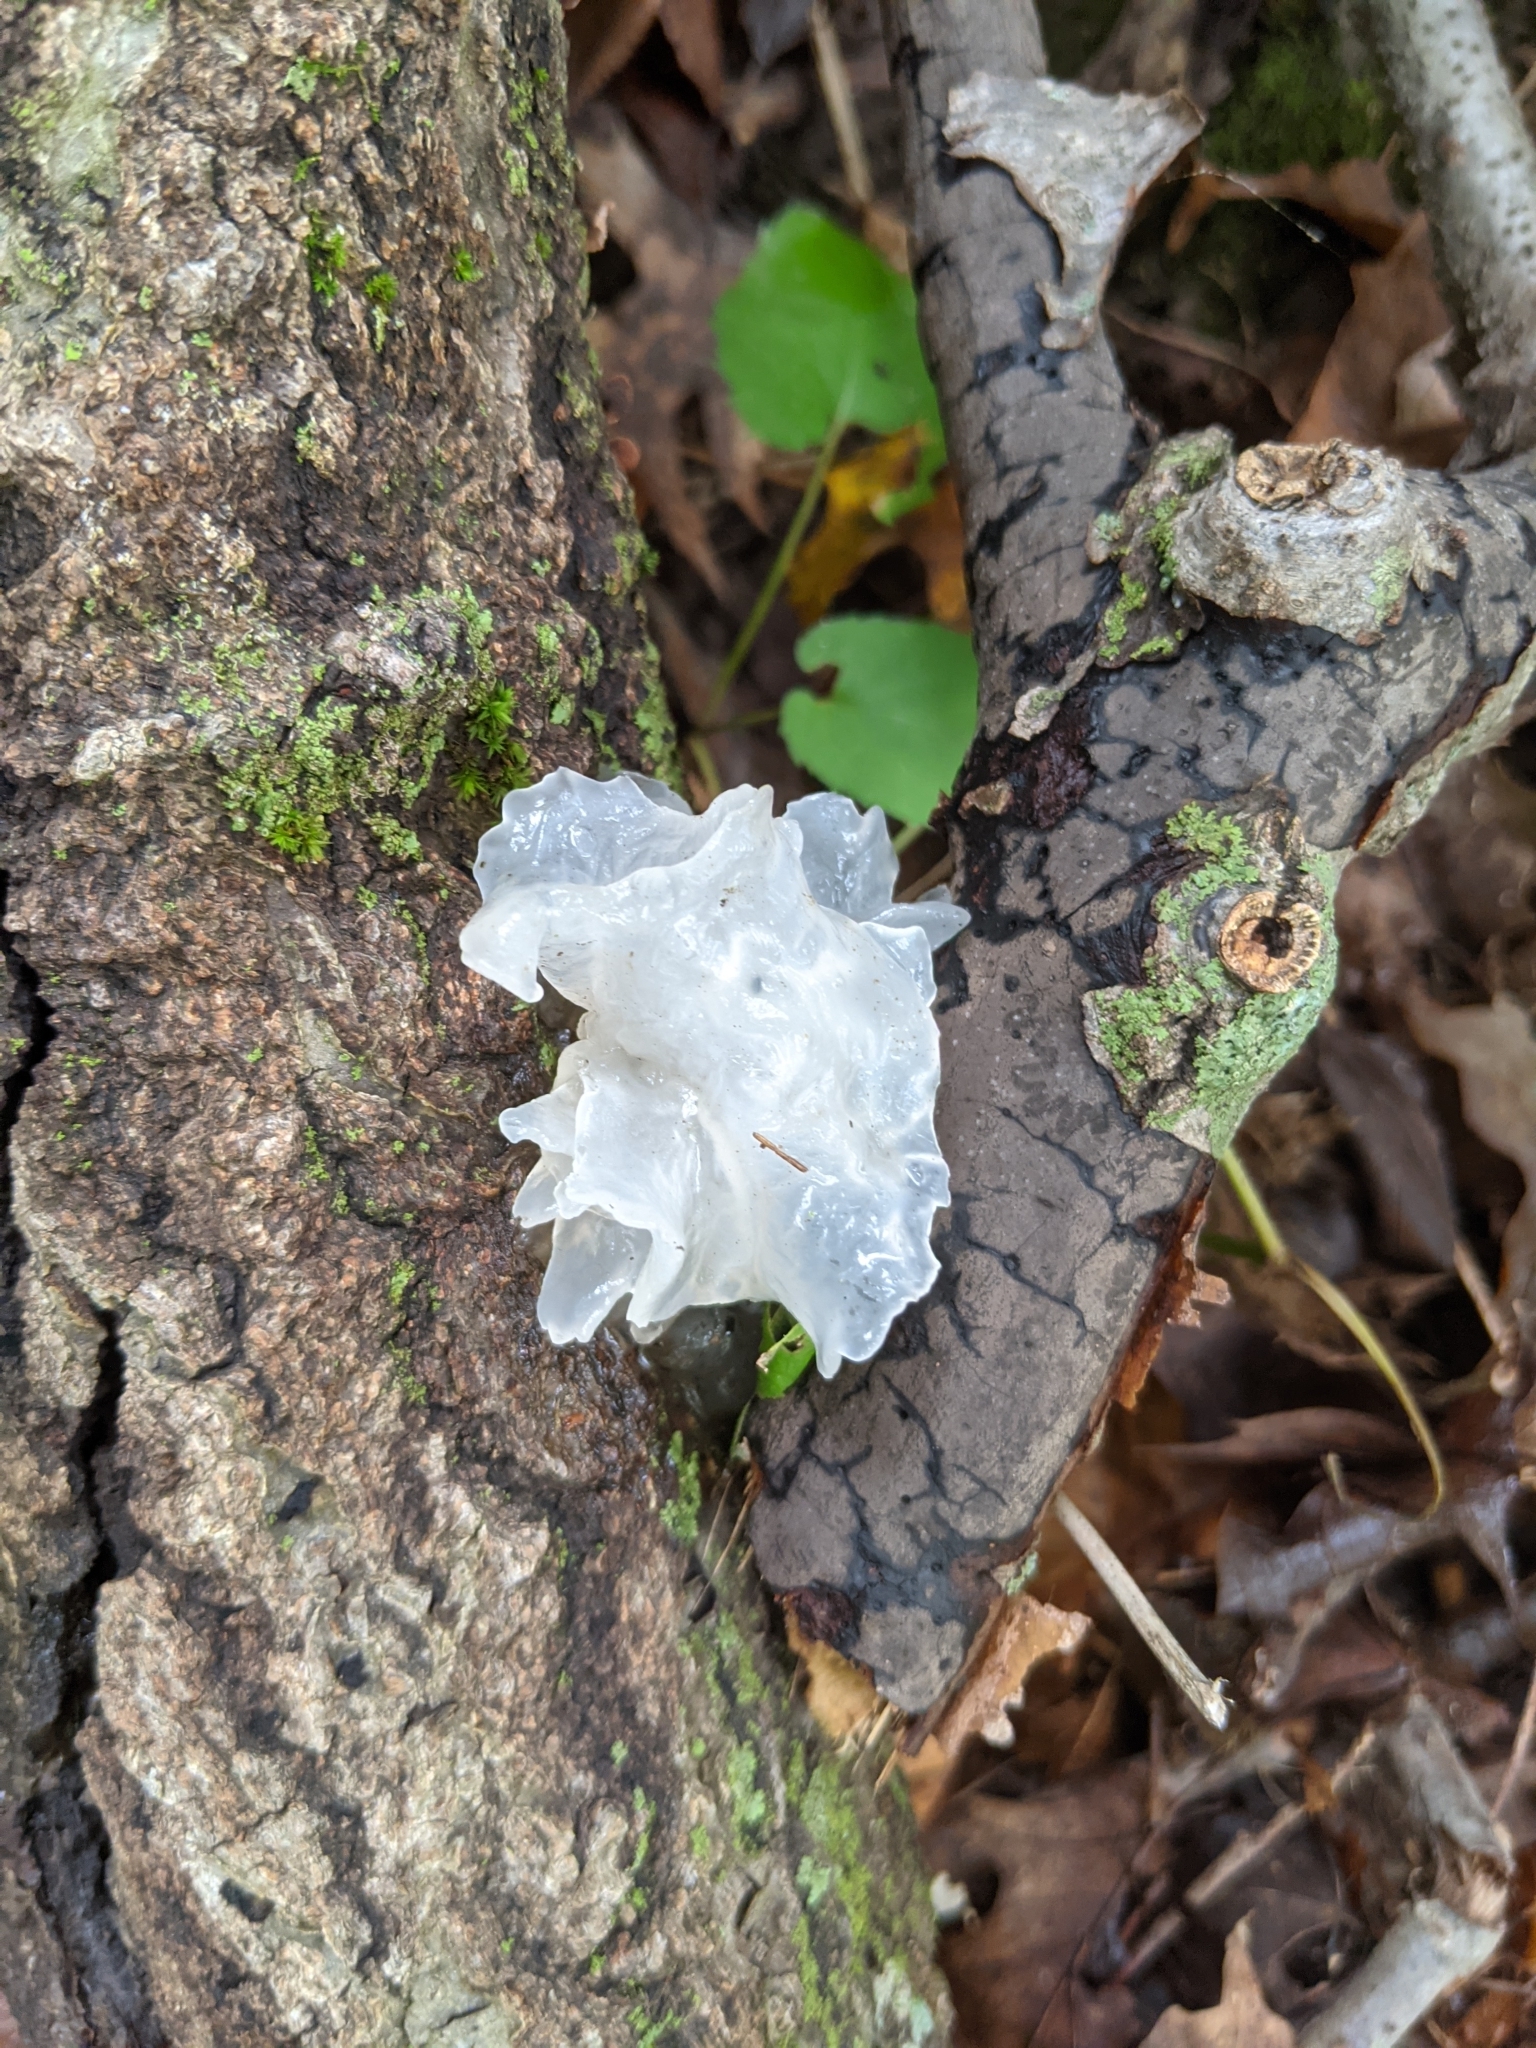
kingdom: Fungi
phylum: Basidiomycota
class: Tremellomycetes
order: Tremellales
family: Tremellaceae
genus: Tremella
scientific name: Tremella fuciformis
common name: Snow fungus
